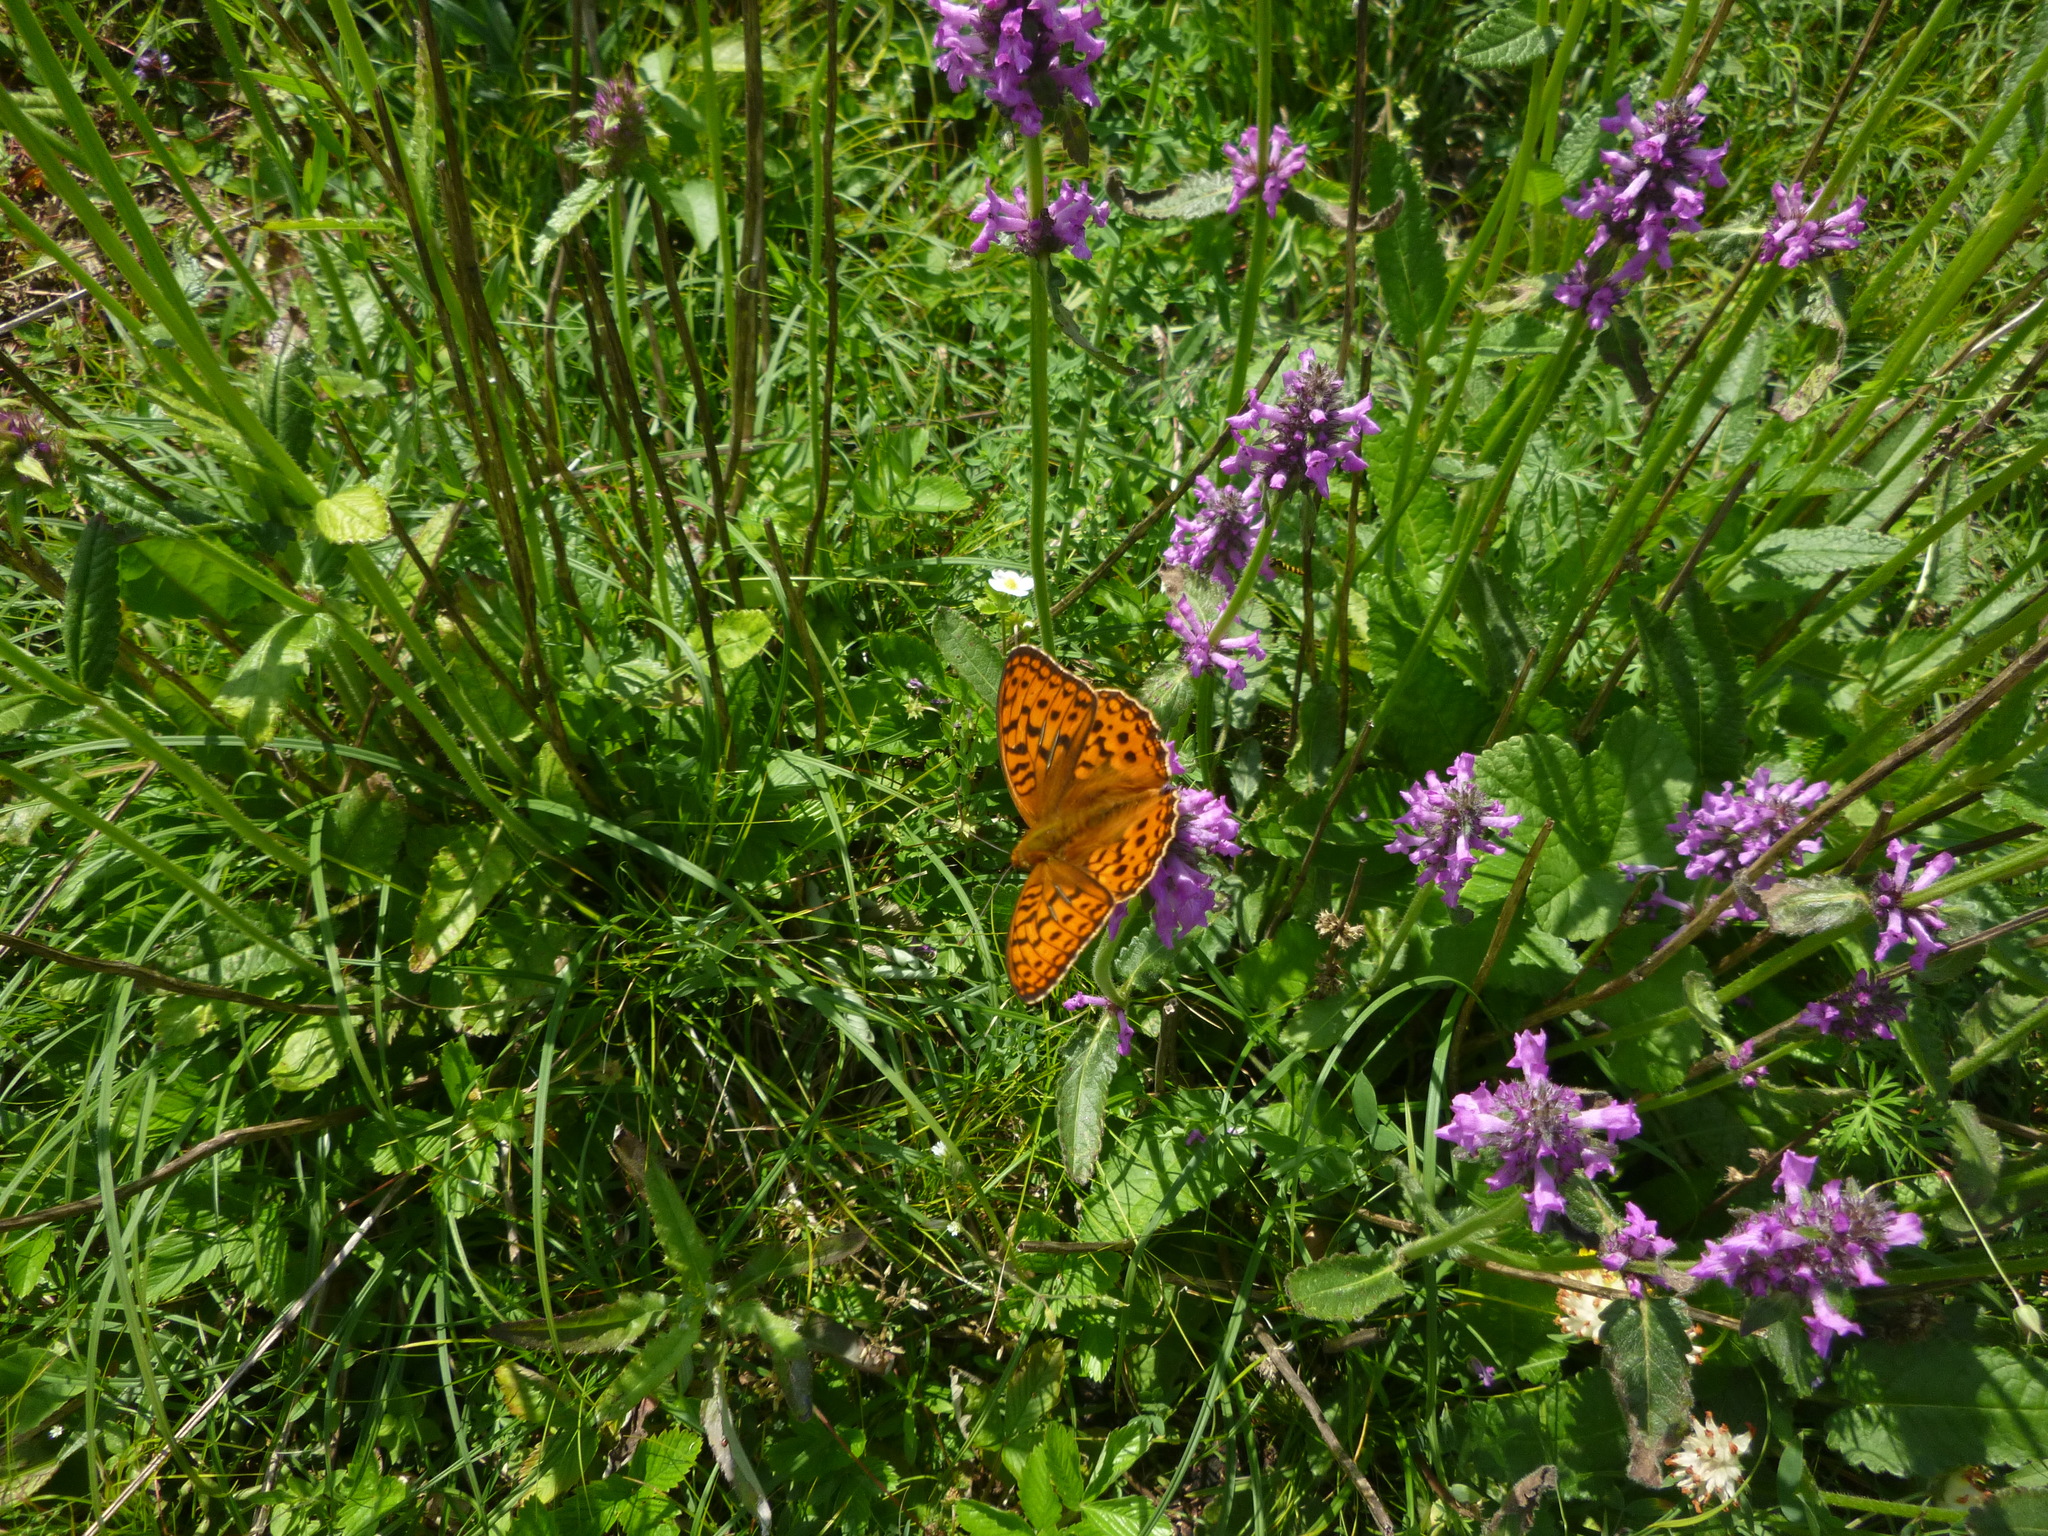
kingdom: Animalia
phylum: Arthropoda
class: Insecta
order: Lepidoptera
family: Nymphalidae
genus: Fabriciana
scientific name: Fabriciana adippe
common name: High brown fritillary
